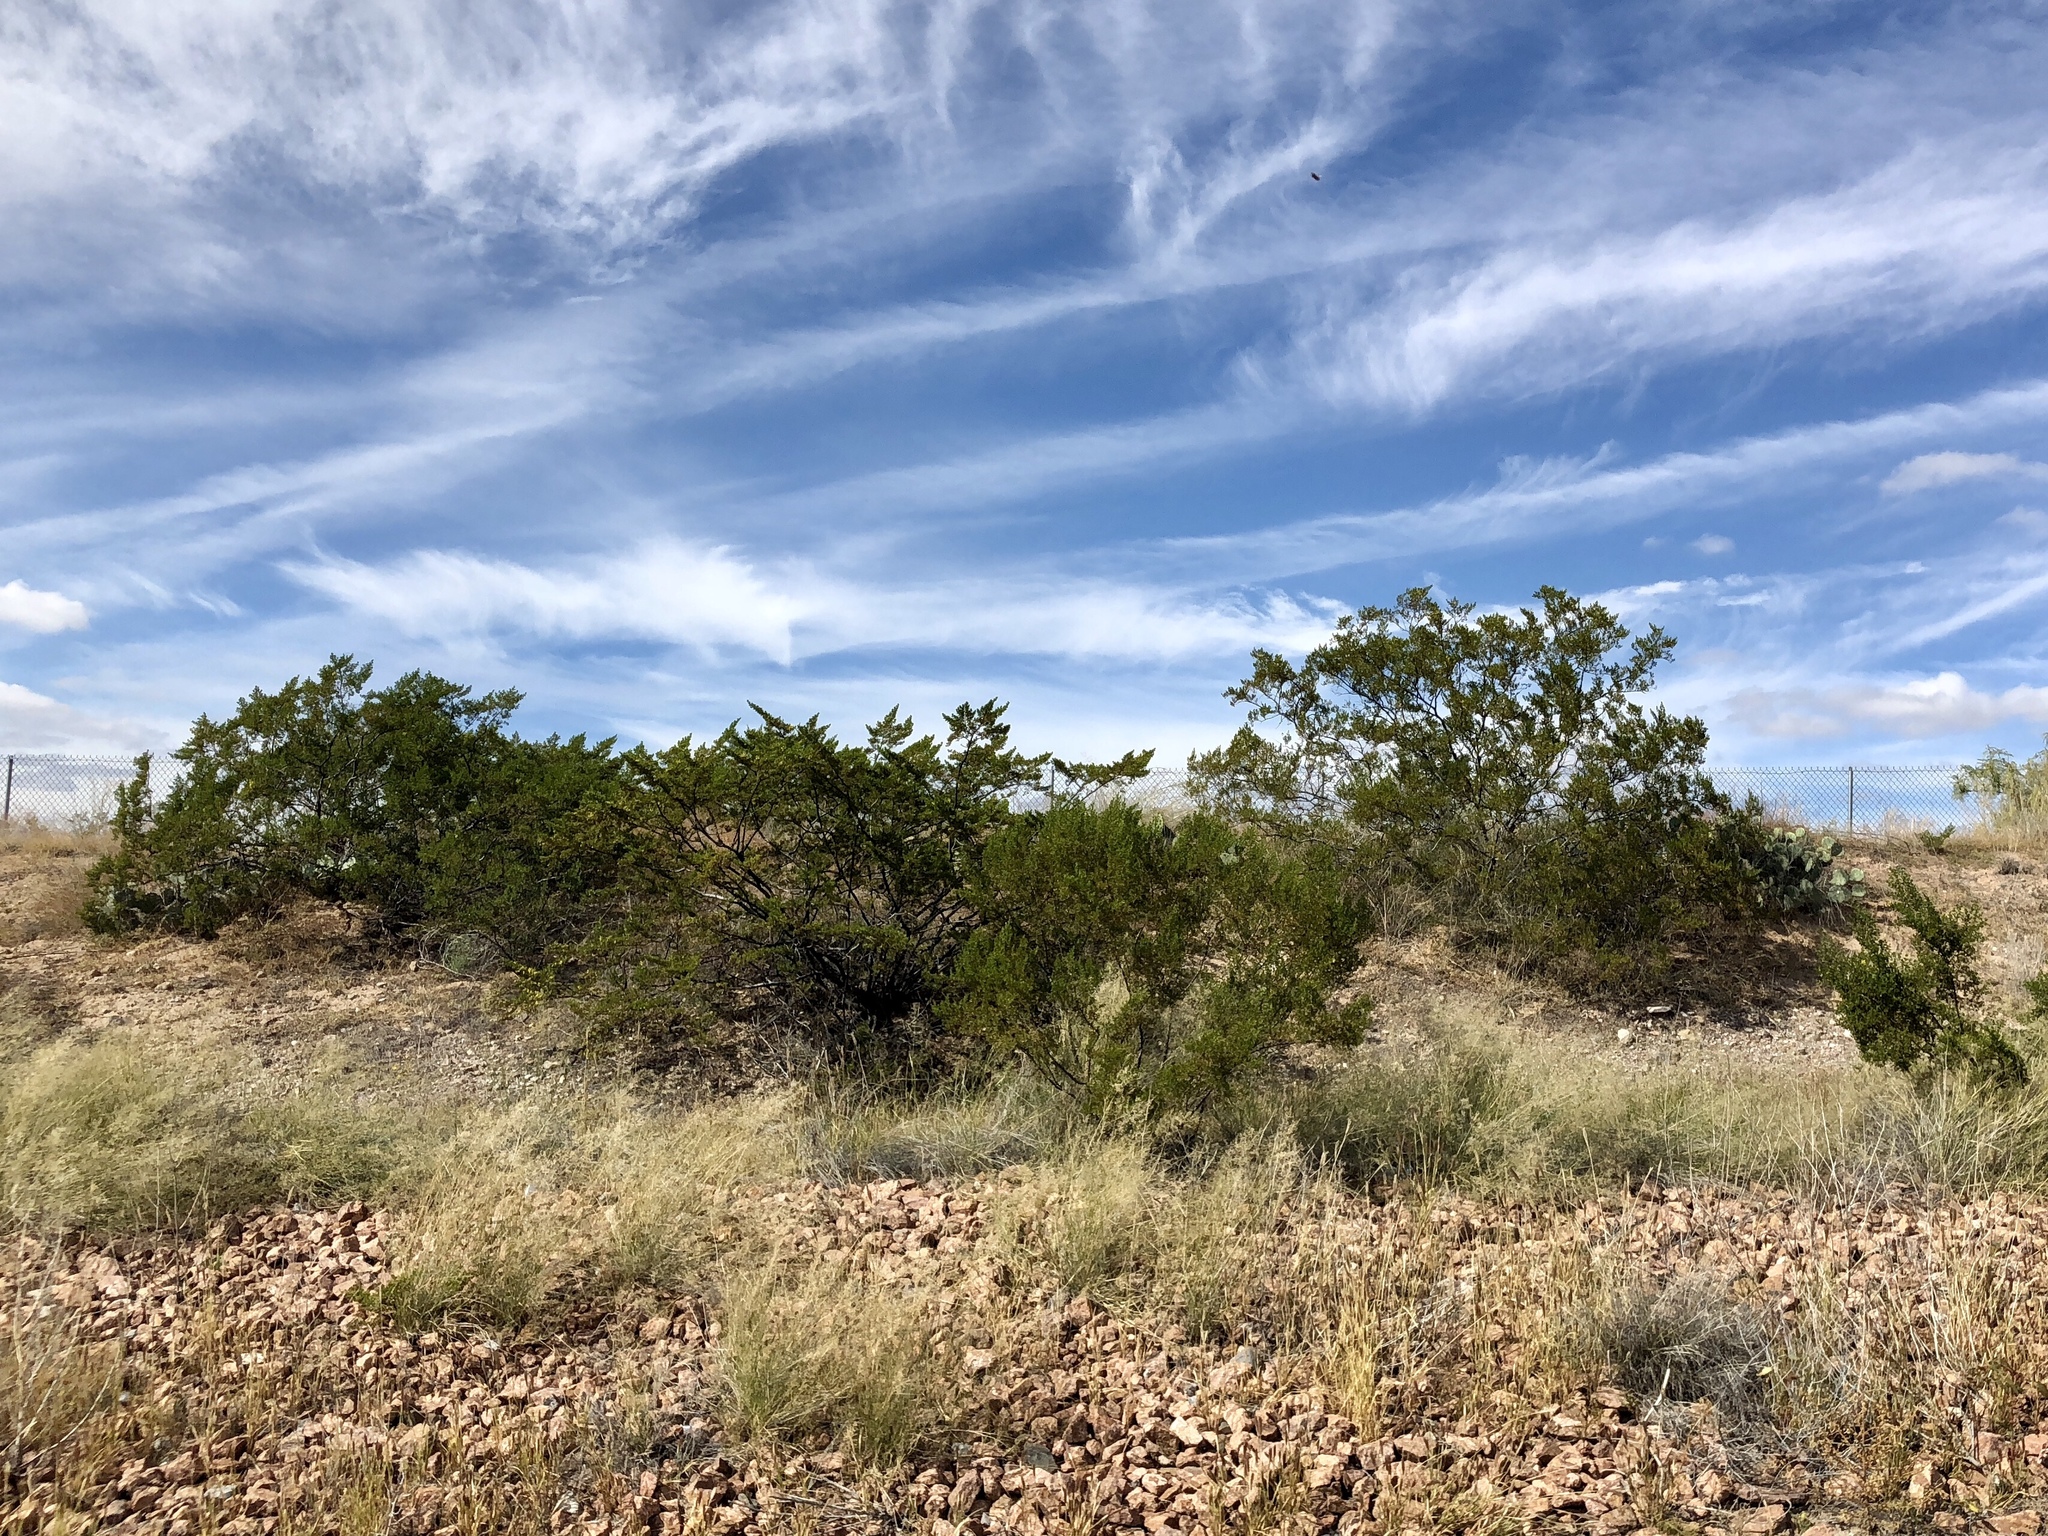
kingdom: Plantae
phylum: Tracheophyta
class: Magnoliopsida
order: Zygophyllales
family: Zygophyllaceae
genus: Larrea
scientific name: Larrea tridentata
